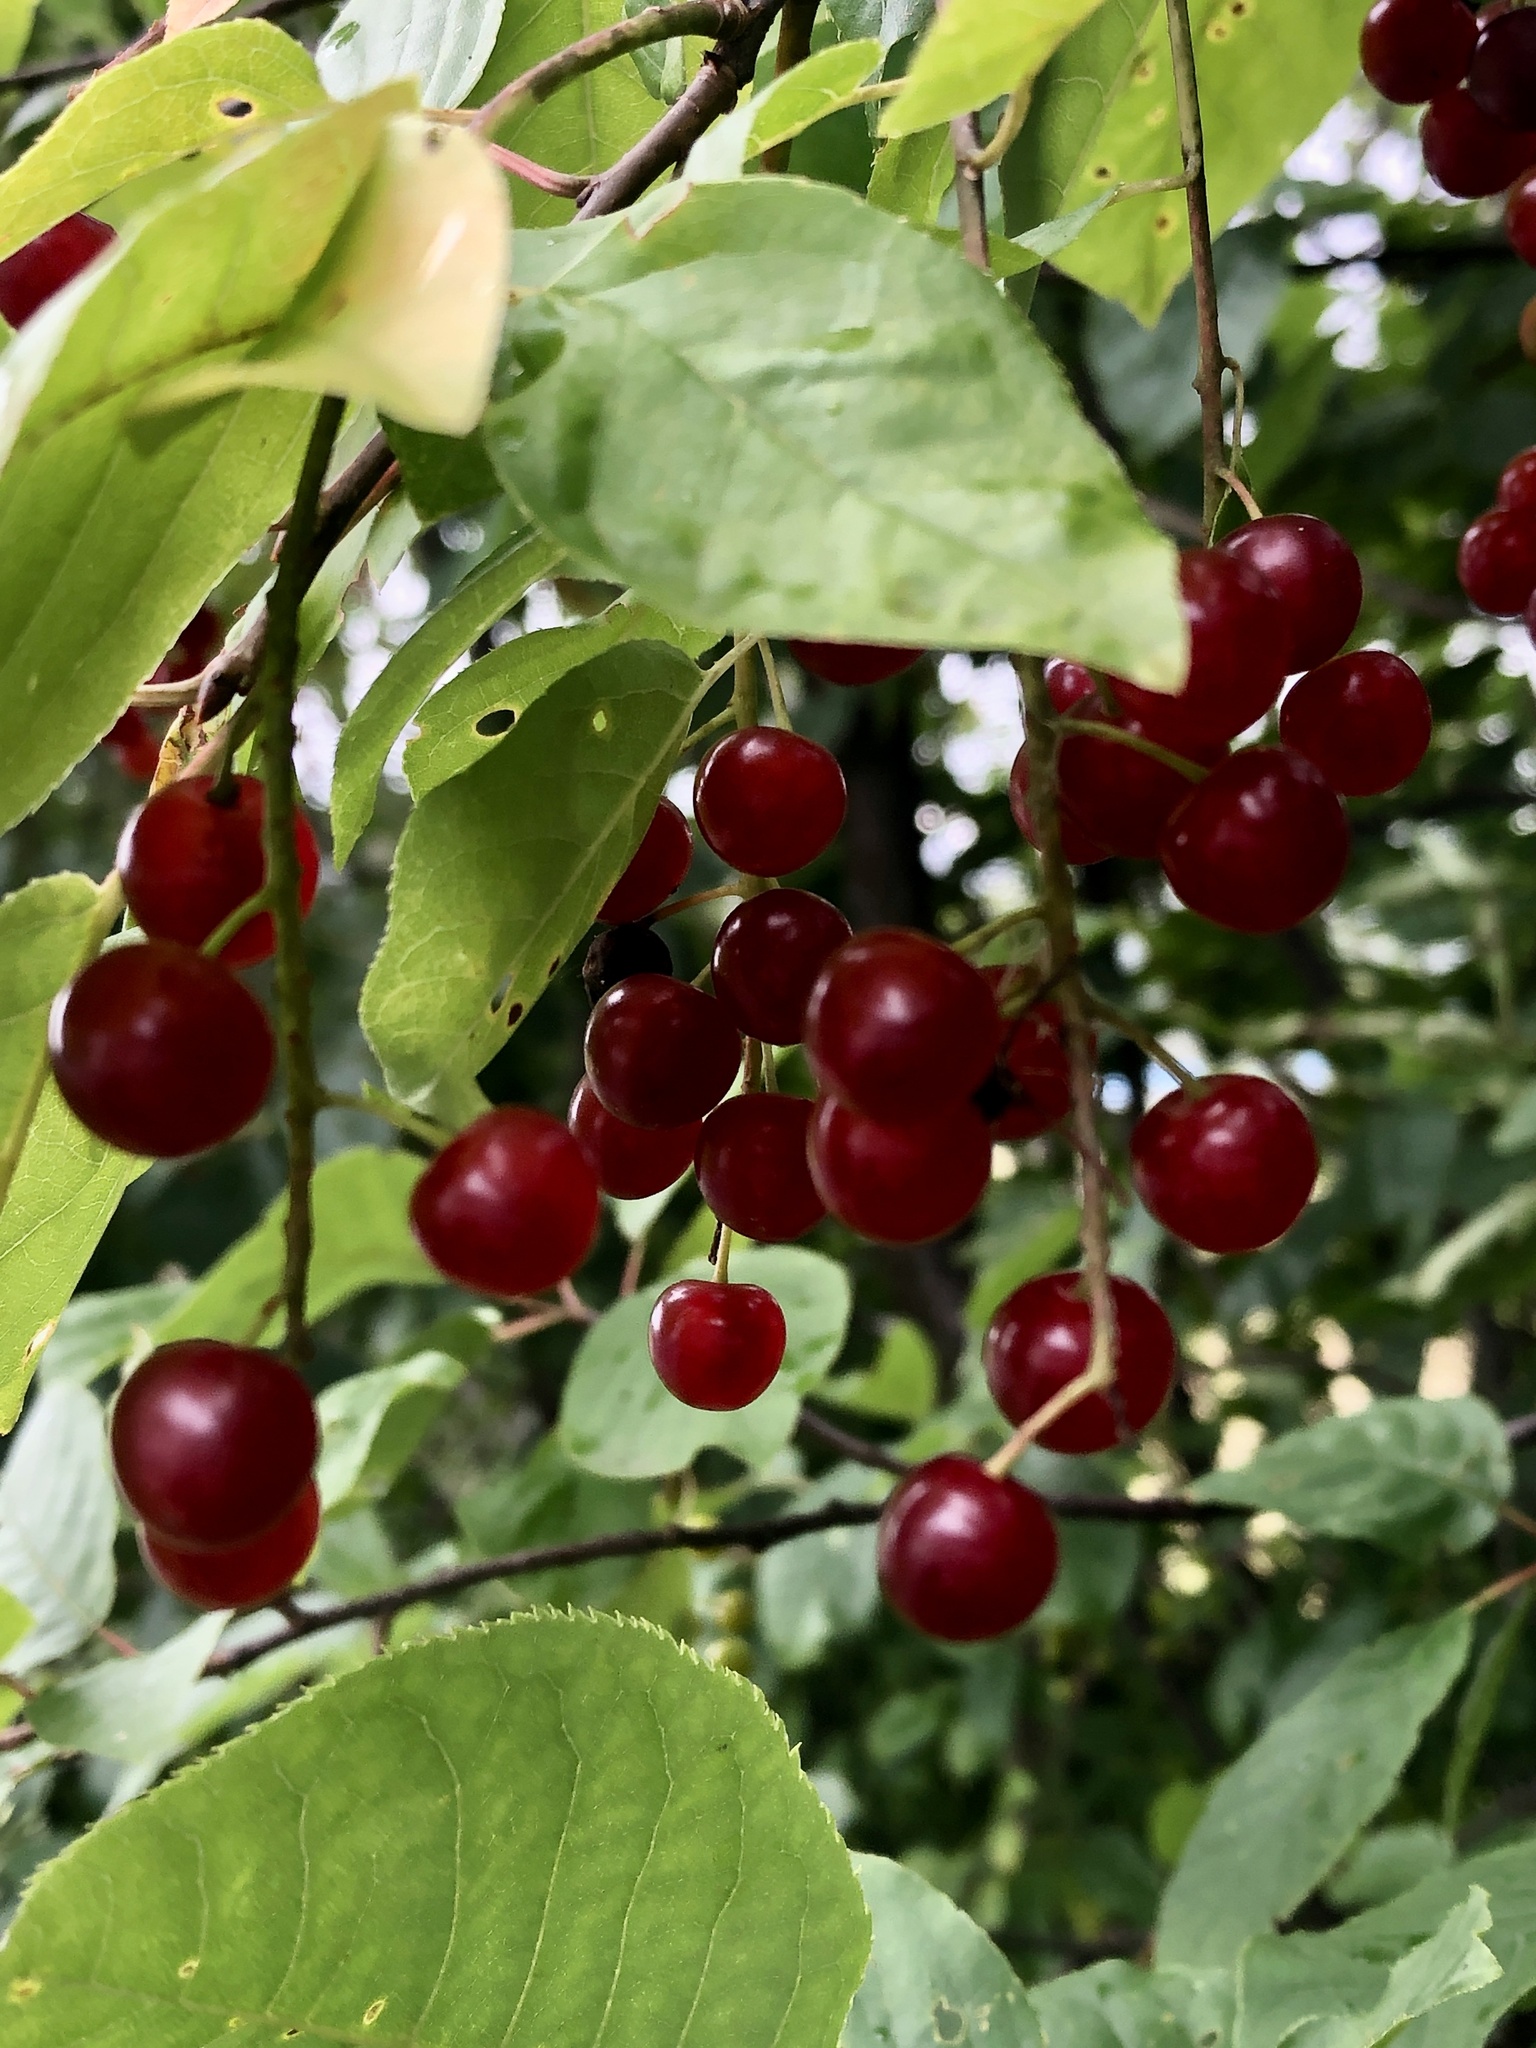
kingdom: Plantae
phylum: Tracheophyta
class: Magnoliopsida
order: Rosales
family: Rosaceae
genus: Prunus
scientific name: Prunus virginiana
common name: Chokecherry
